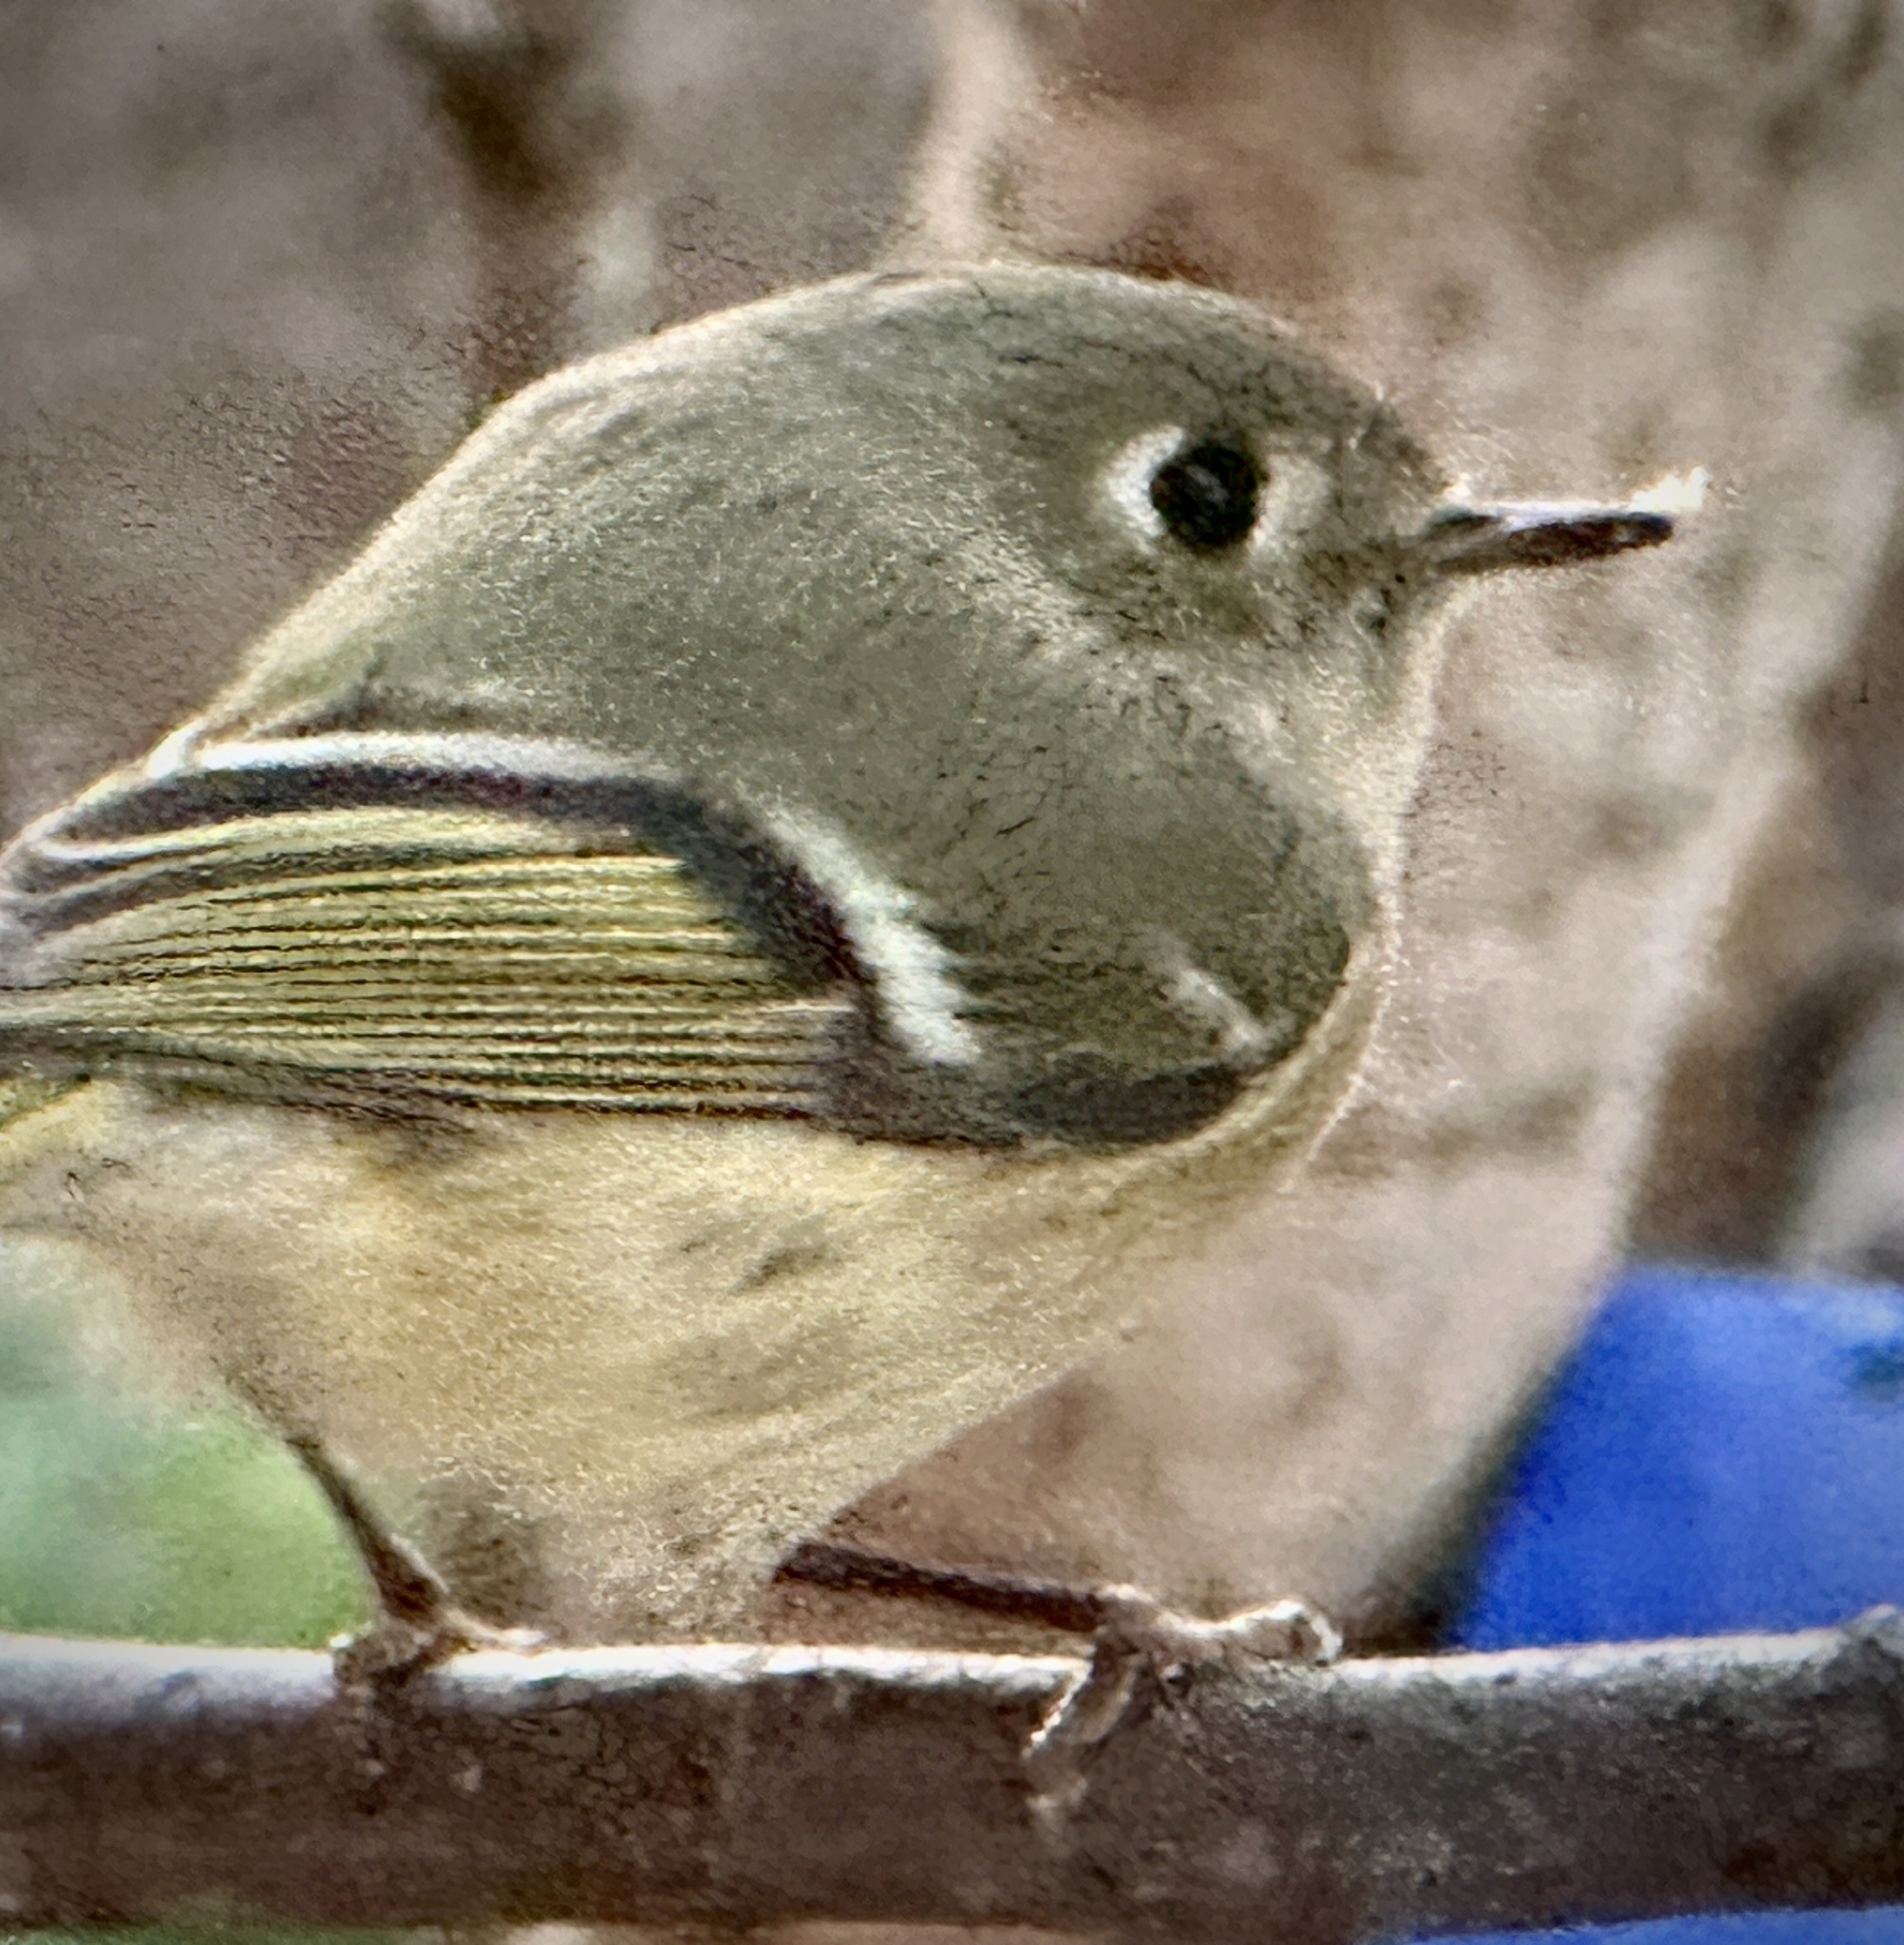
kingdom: Animalia
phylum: Chordata
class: Aves
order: Passeriformes
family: Regulidae
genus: Regulus
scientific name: Regulus calendula
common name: Ruby-crowned kinglet
